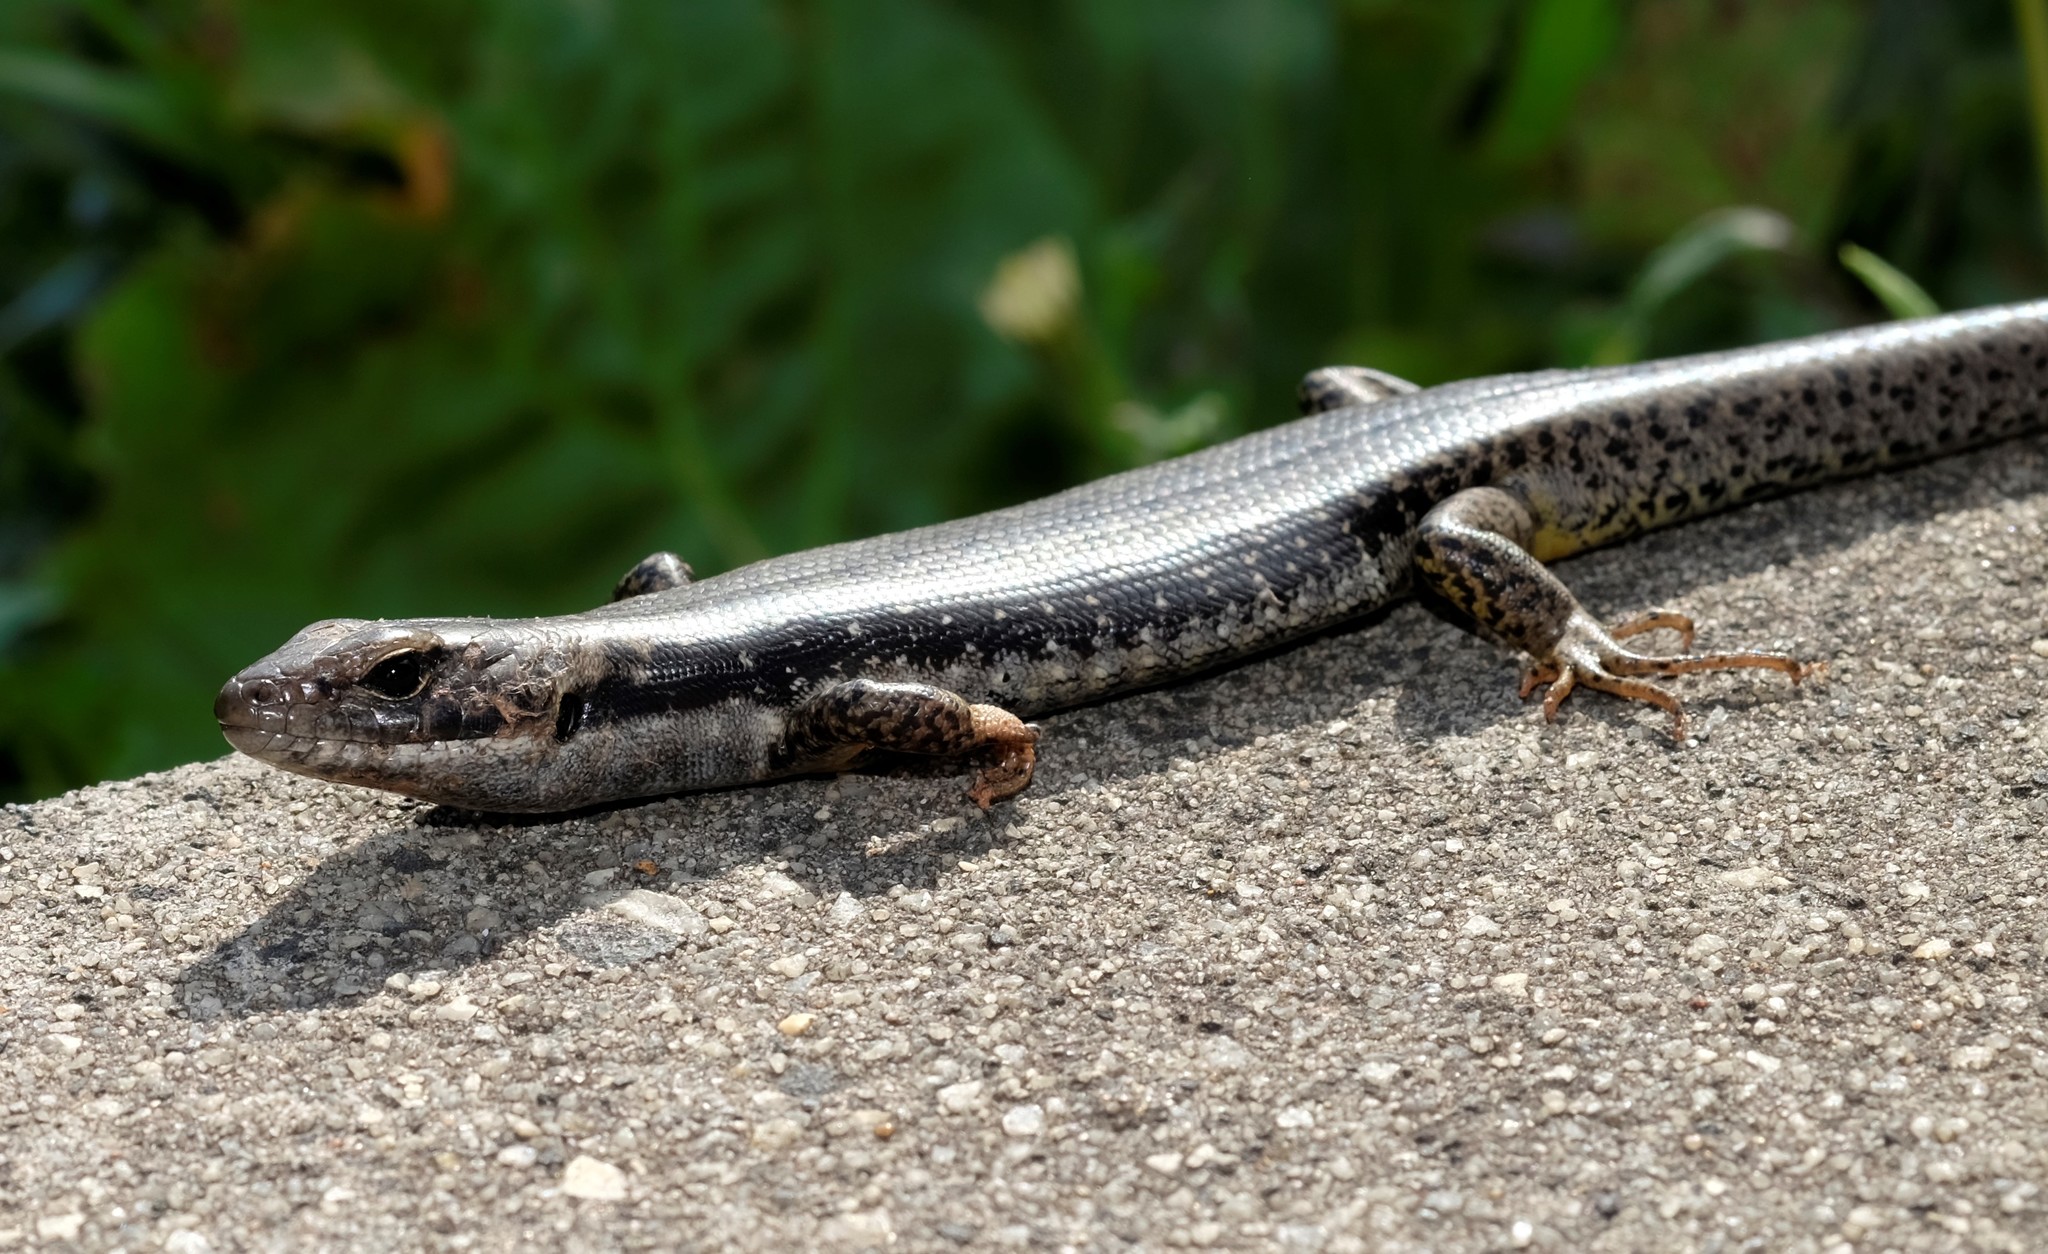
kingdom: Animalia
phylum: Chordata
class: Squamata
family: Scincidae
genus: Eulamprus
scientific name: Eulamprus tympanum
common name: Cool-temperate water-skink
